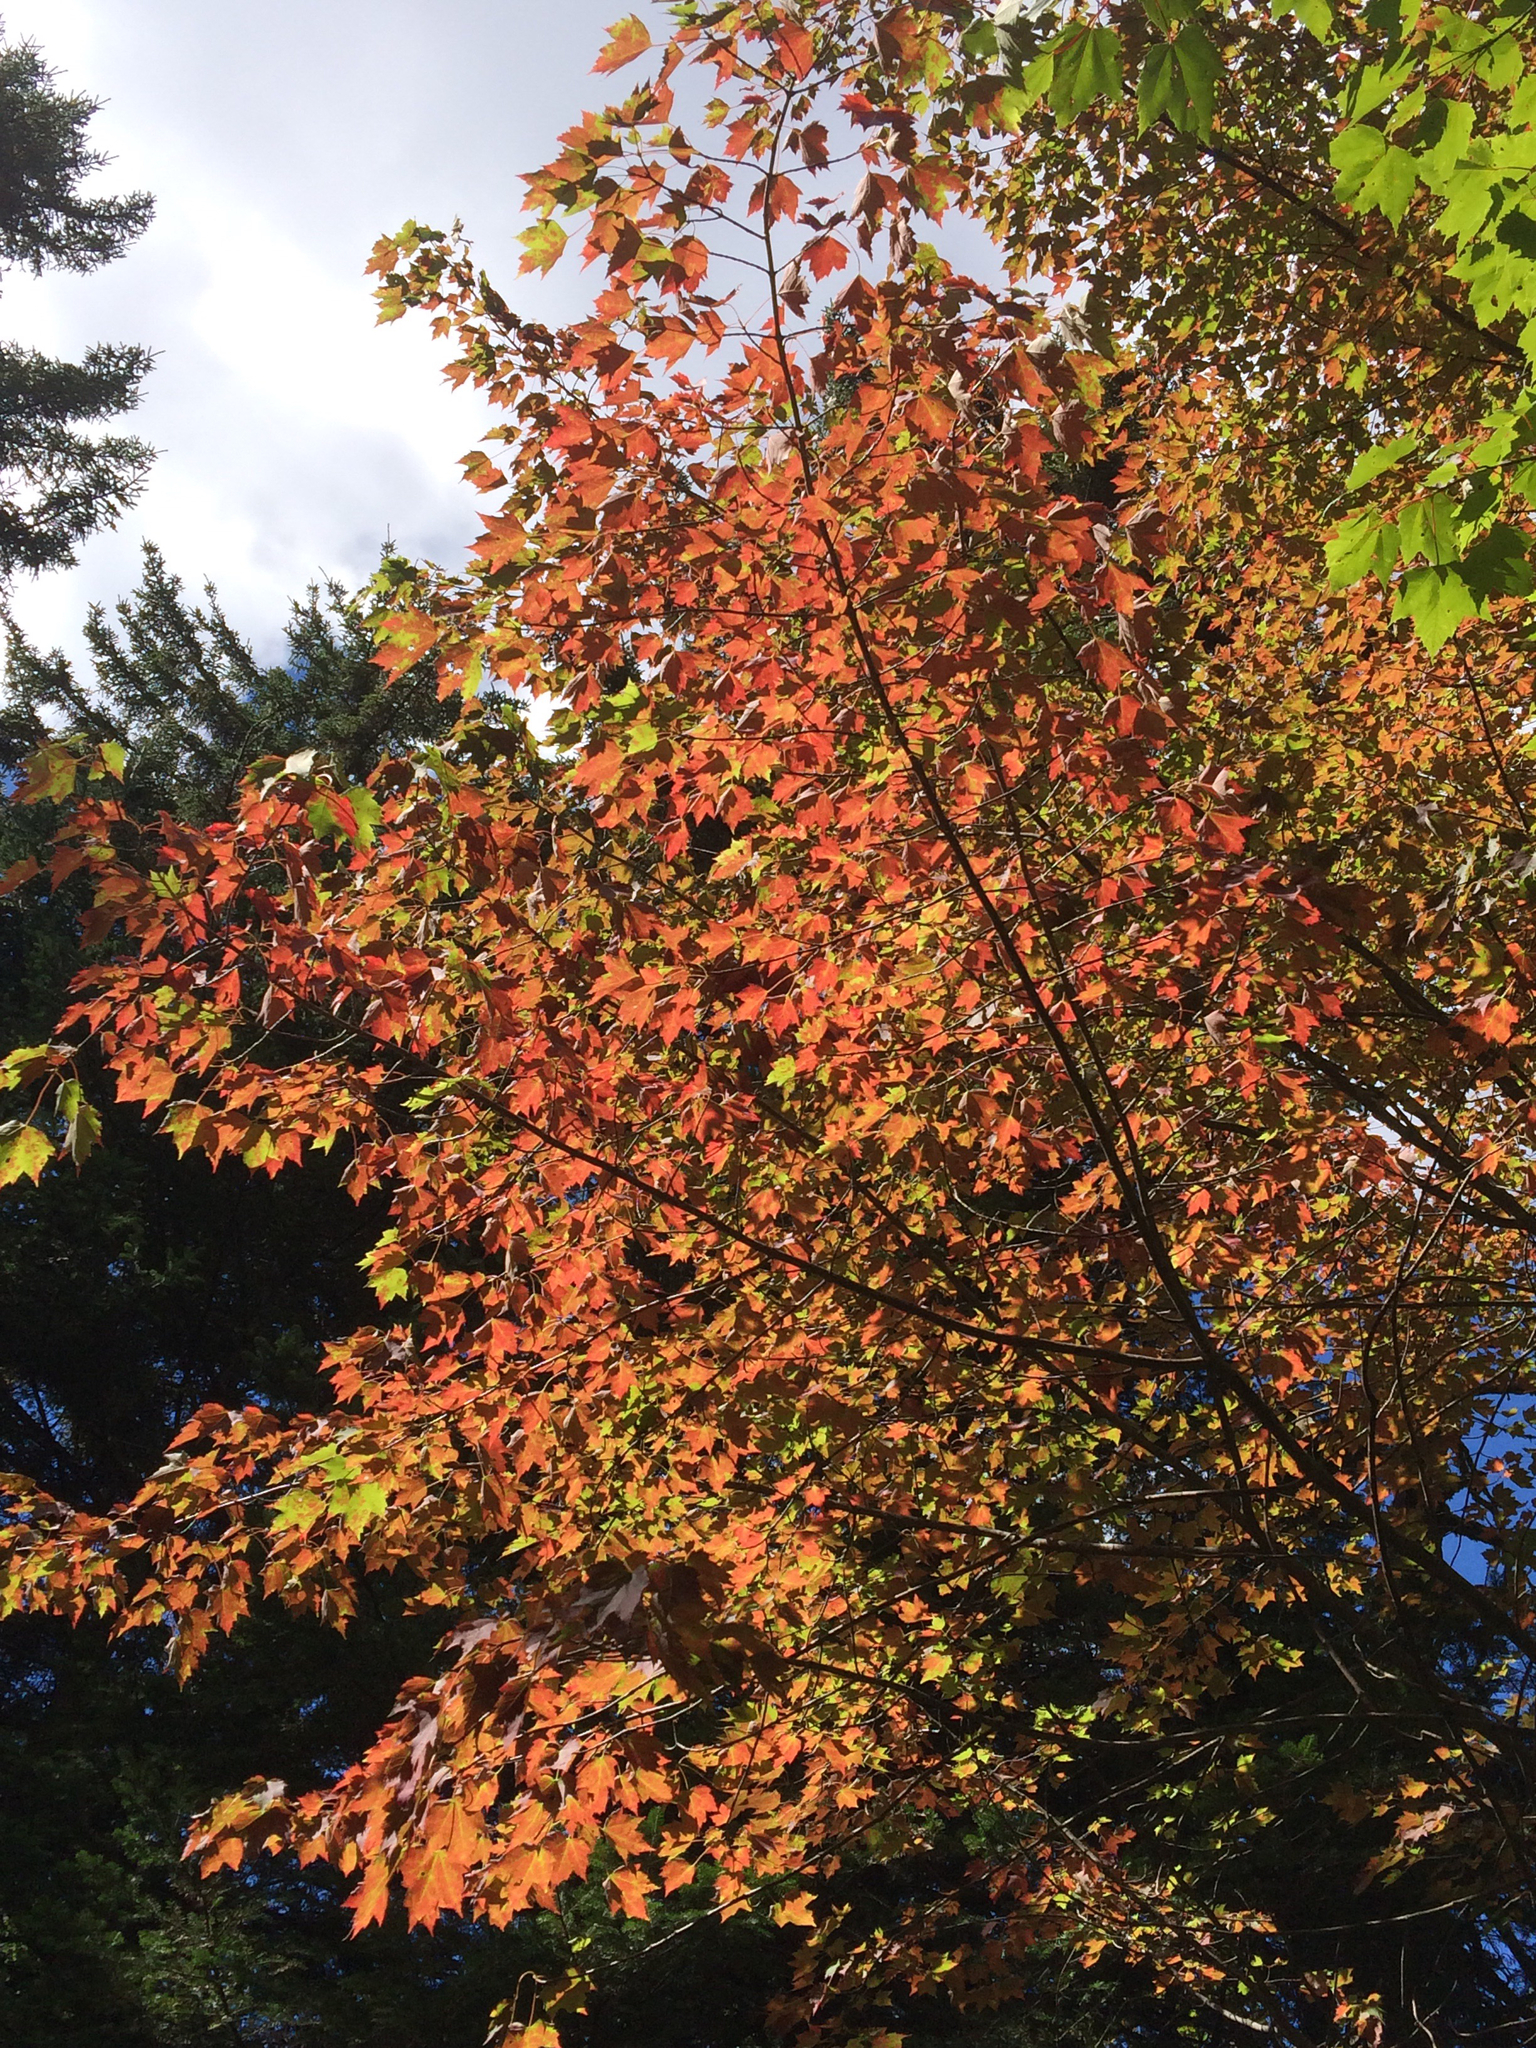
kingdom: Plantae
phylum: Tracheophyta
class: Magnoliopsida
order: Sapindales
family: Sapindaceae
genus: Acer
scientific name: Acer rubrum
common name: Red maple
